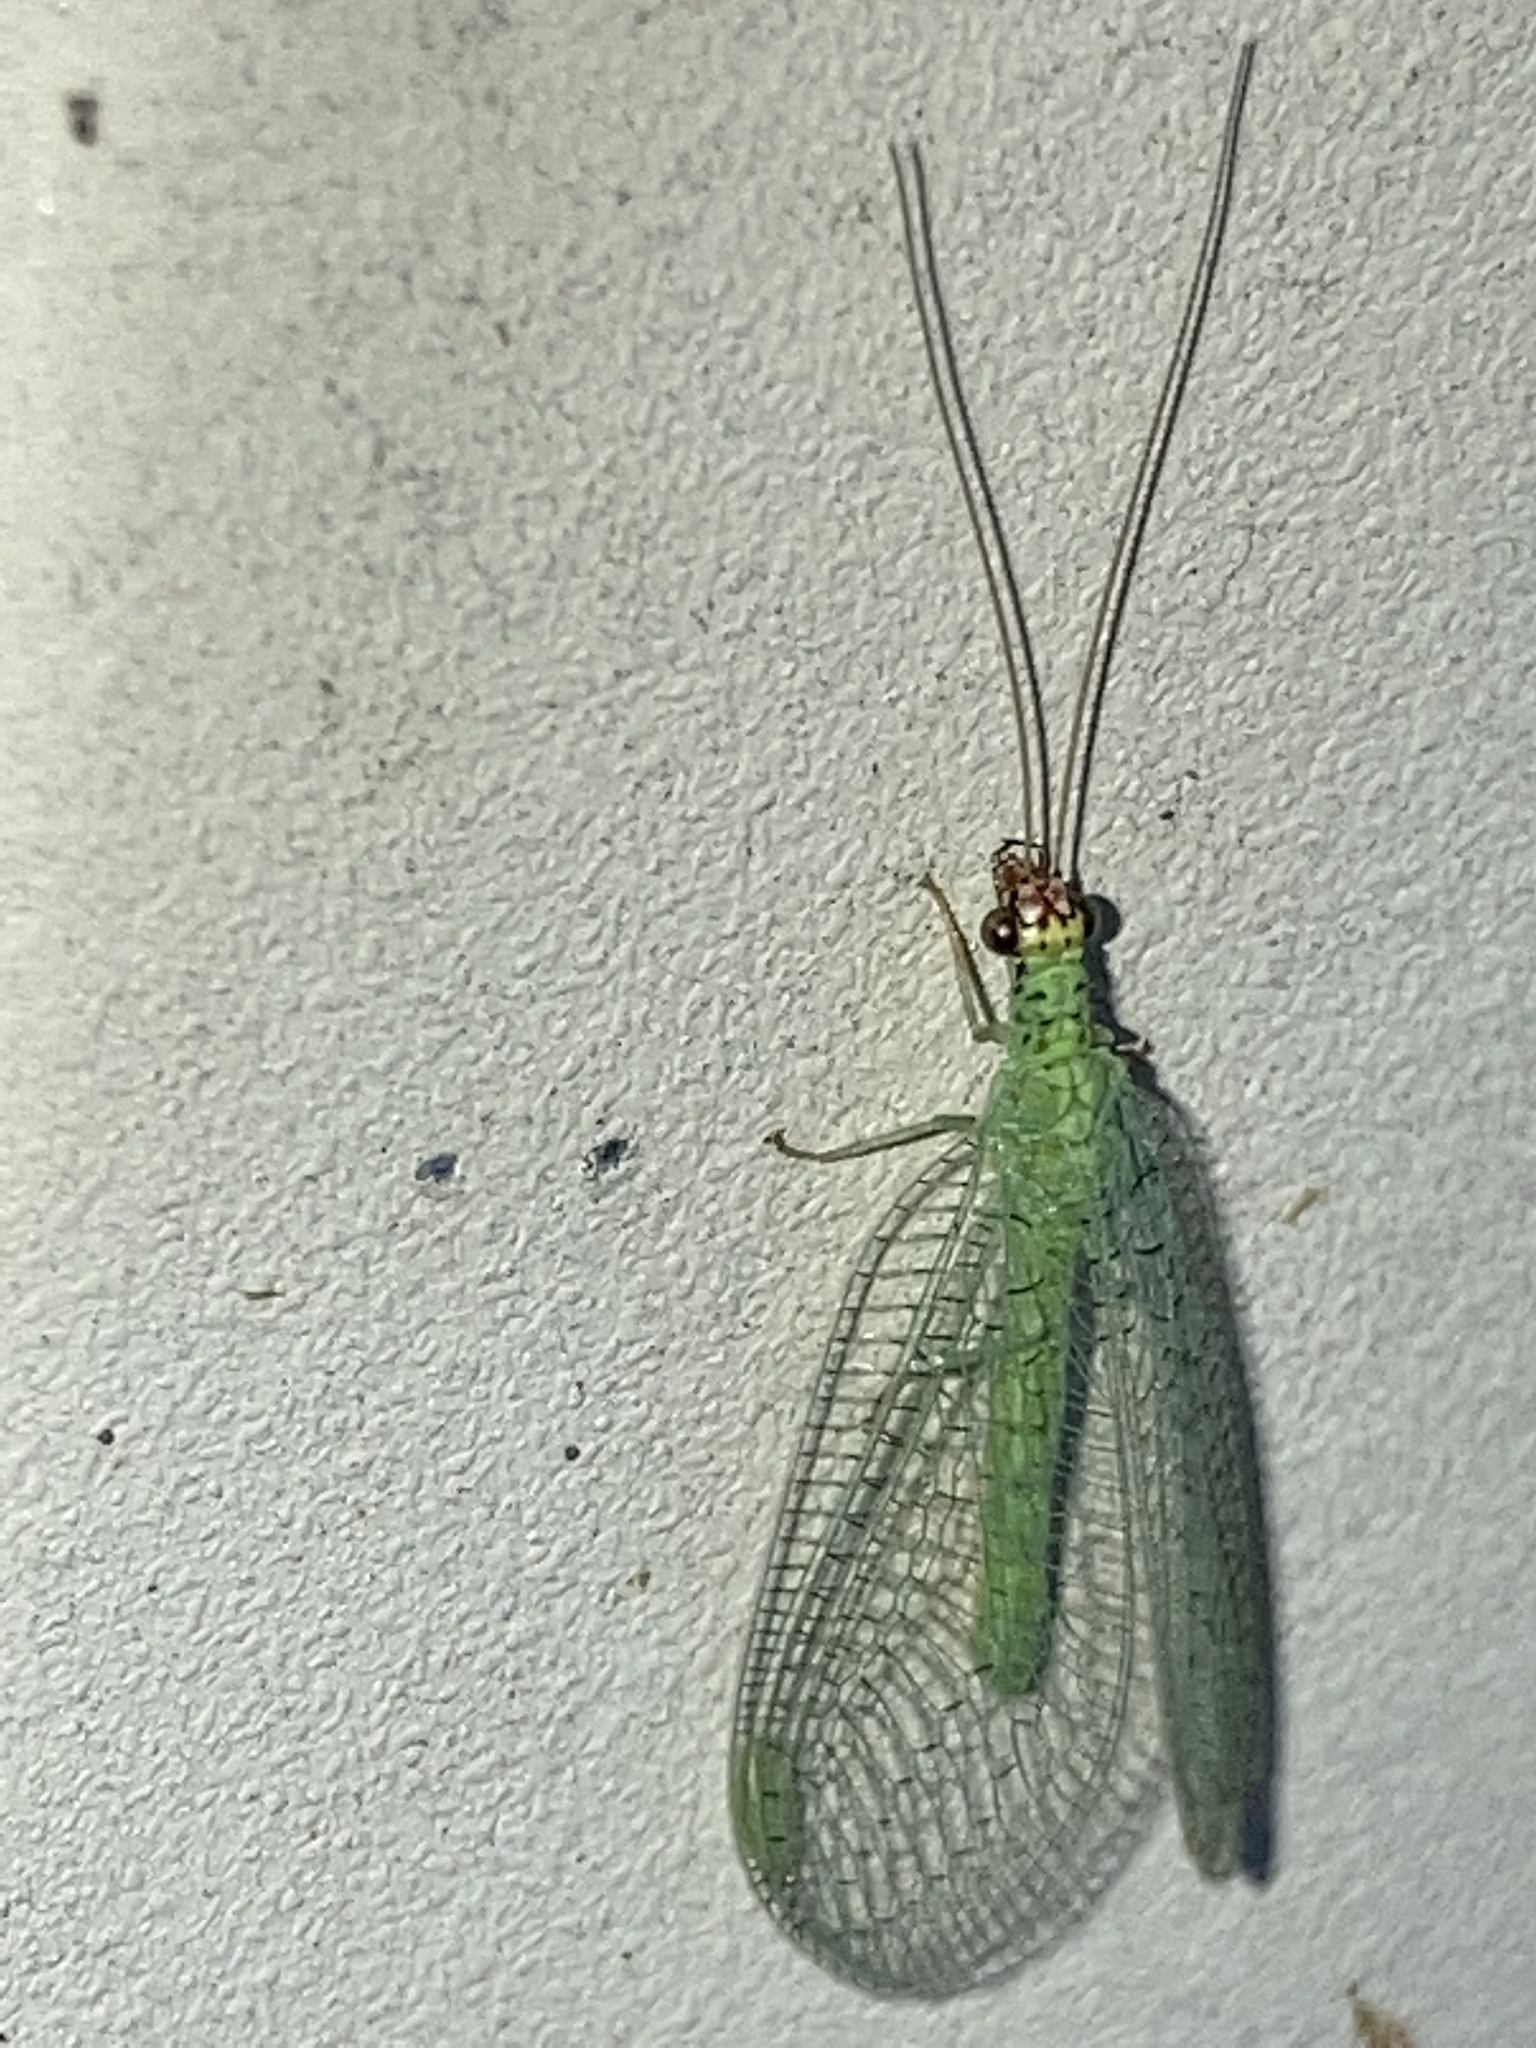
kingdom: Animalia
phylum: Arthropoda
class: Insecta
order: Neuroptera
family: Chrysopidae
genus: Chrysopa
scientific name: Chrysopa oculata
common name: Golden-eyed lacewing
